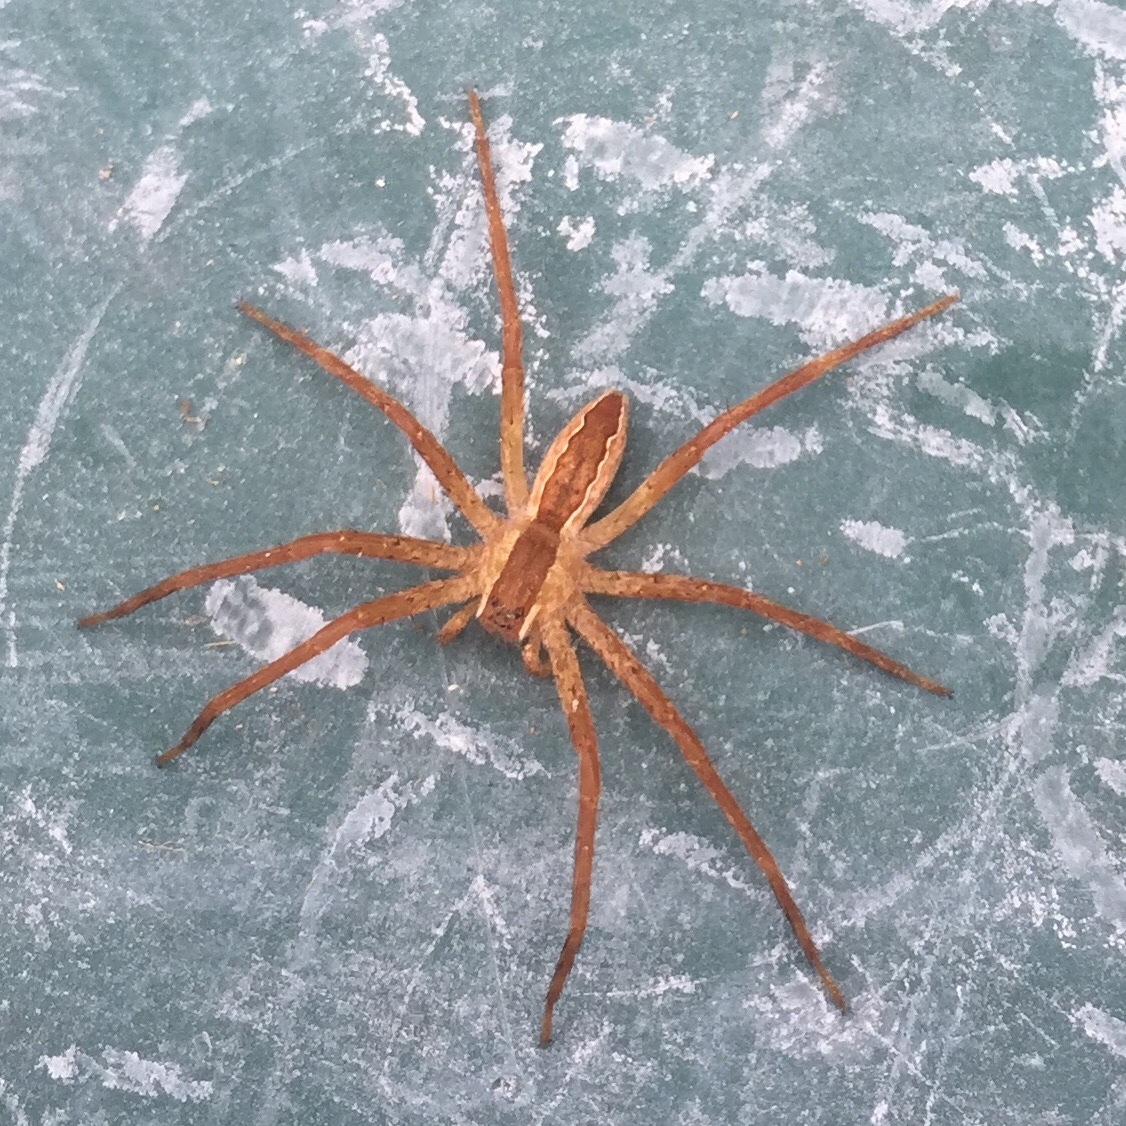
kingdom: Animalia
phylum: Arthropoda
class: Arachnida
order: Araneae
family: Pisauridae
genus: Pisaurina
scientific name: Pisaurina mira
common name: American nursery web spider
